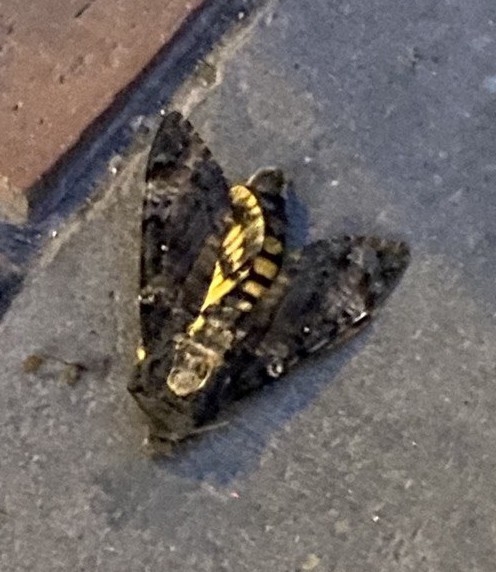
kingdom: Animalia
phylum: Arthropoda
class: Insecta
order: Lepidoptera
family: Sphingidae
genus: Acherontia
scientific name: Acherontia atropos
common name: Death's-head hawk moth
